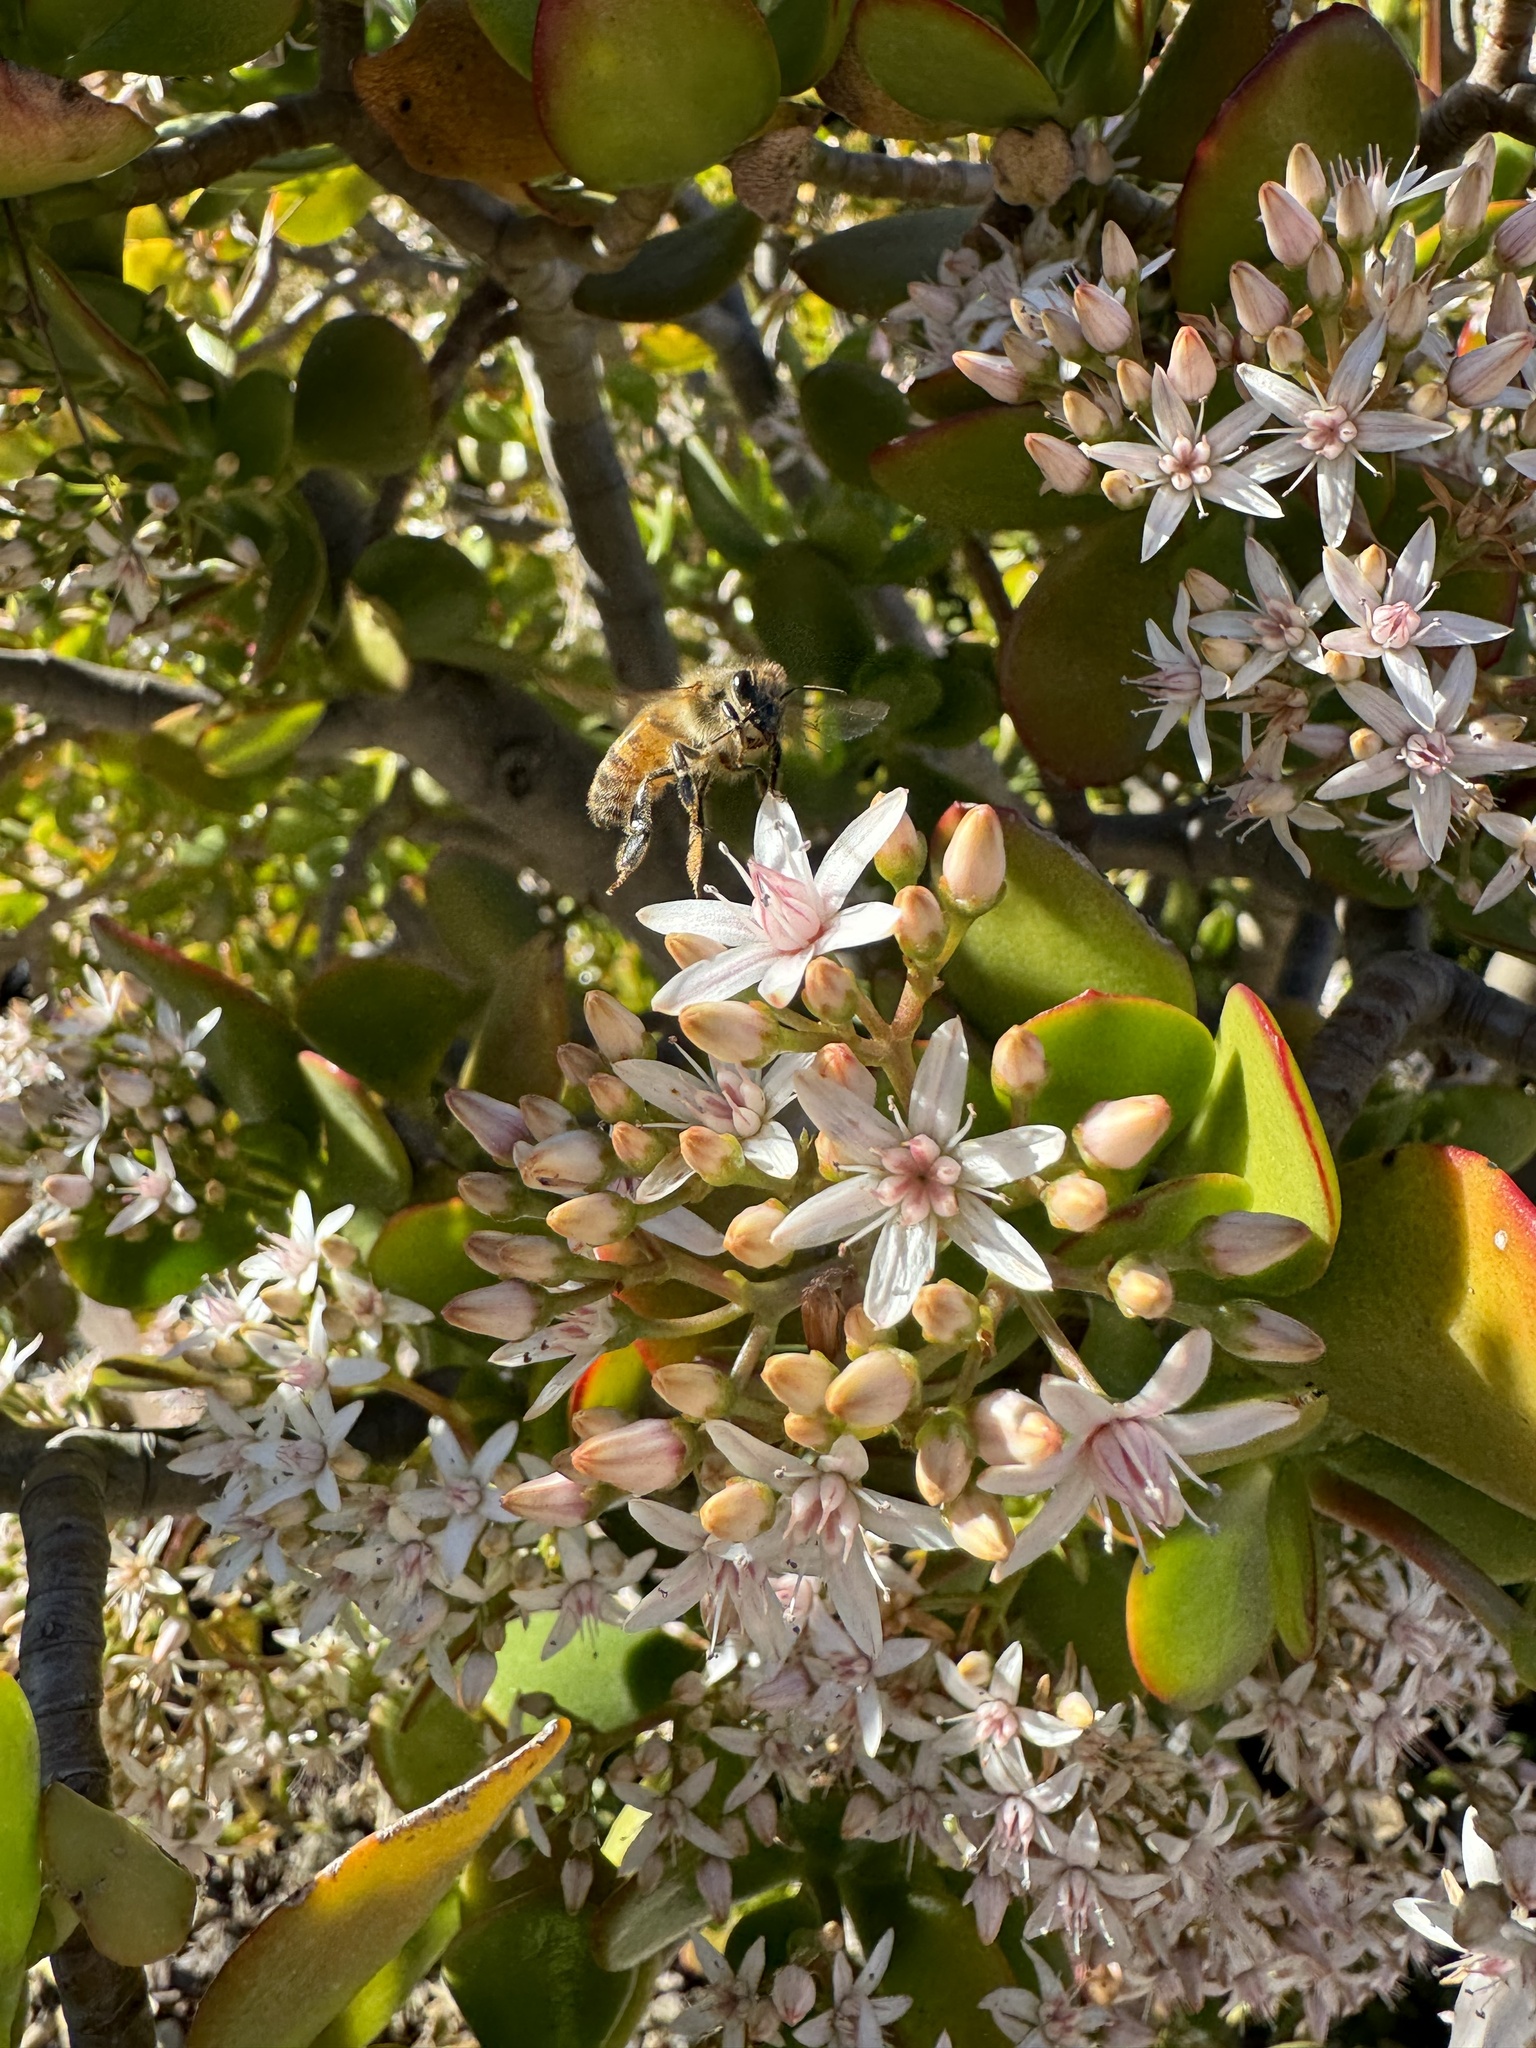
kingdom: Animalia
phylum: Arthropoda
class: Insecta
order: Hymenoptera
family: Apidae
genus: Apis
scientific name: Apis mellifera
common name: Honey bee
